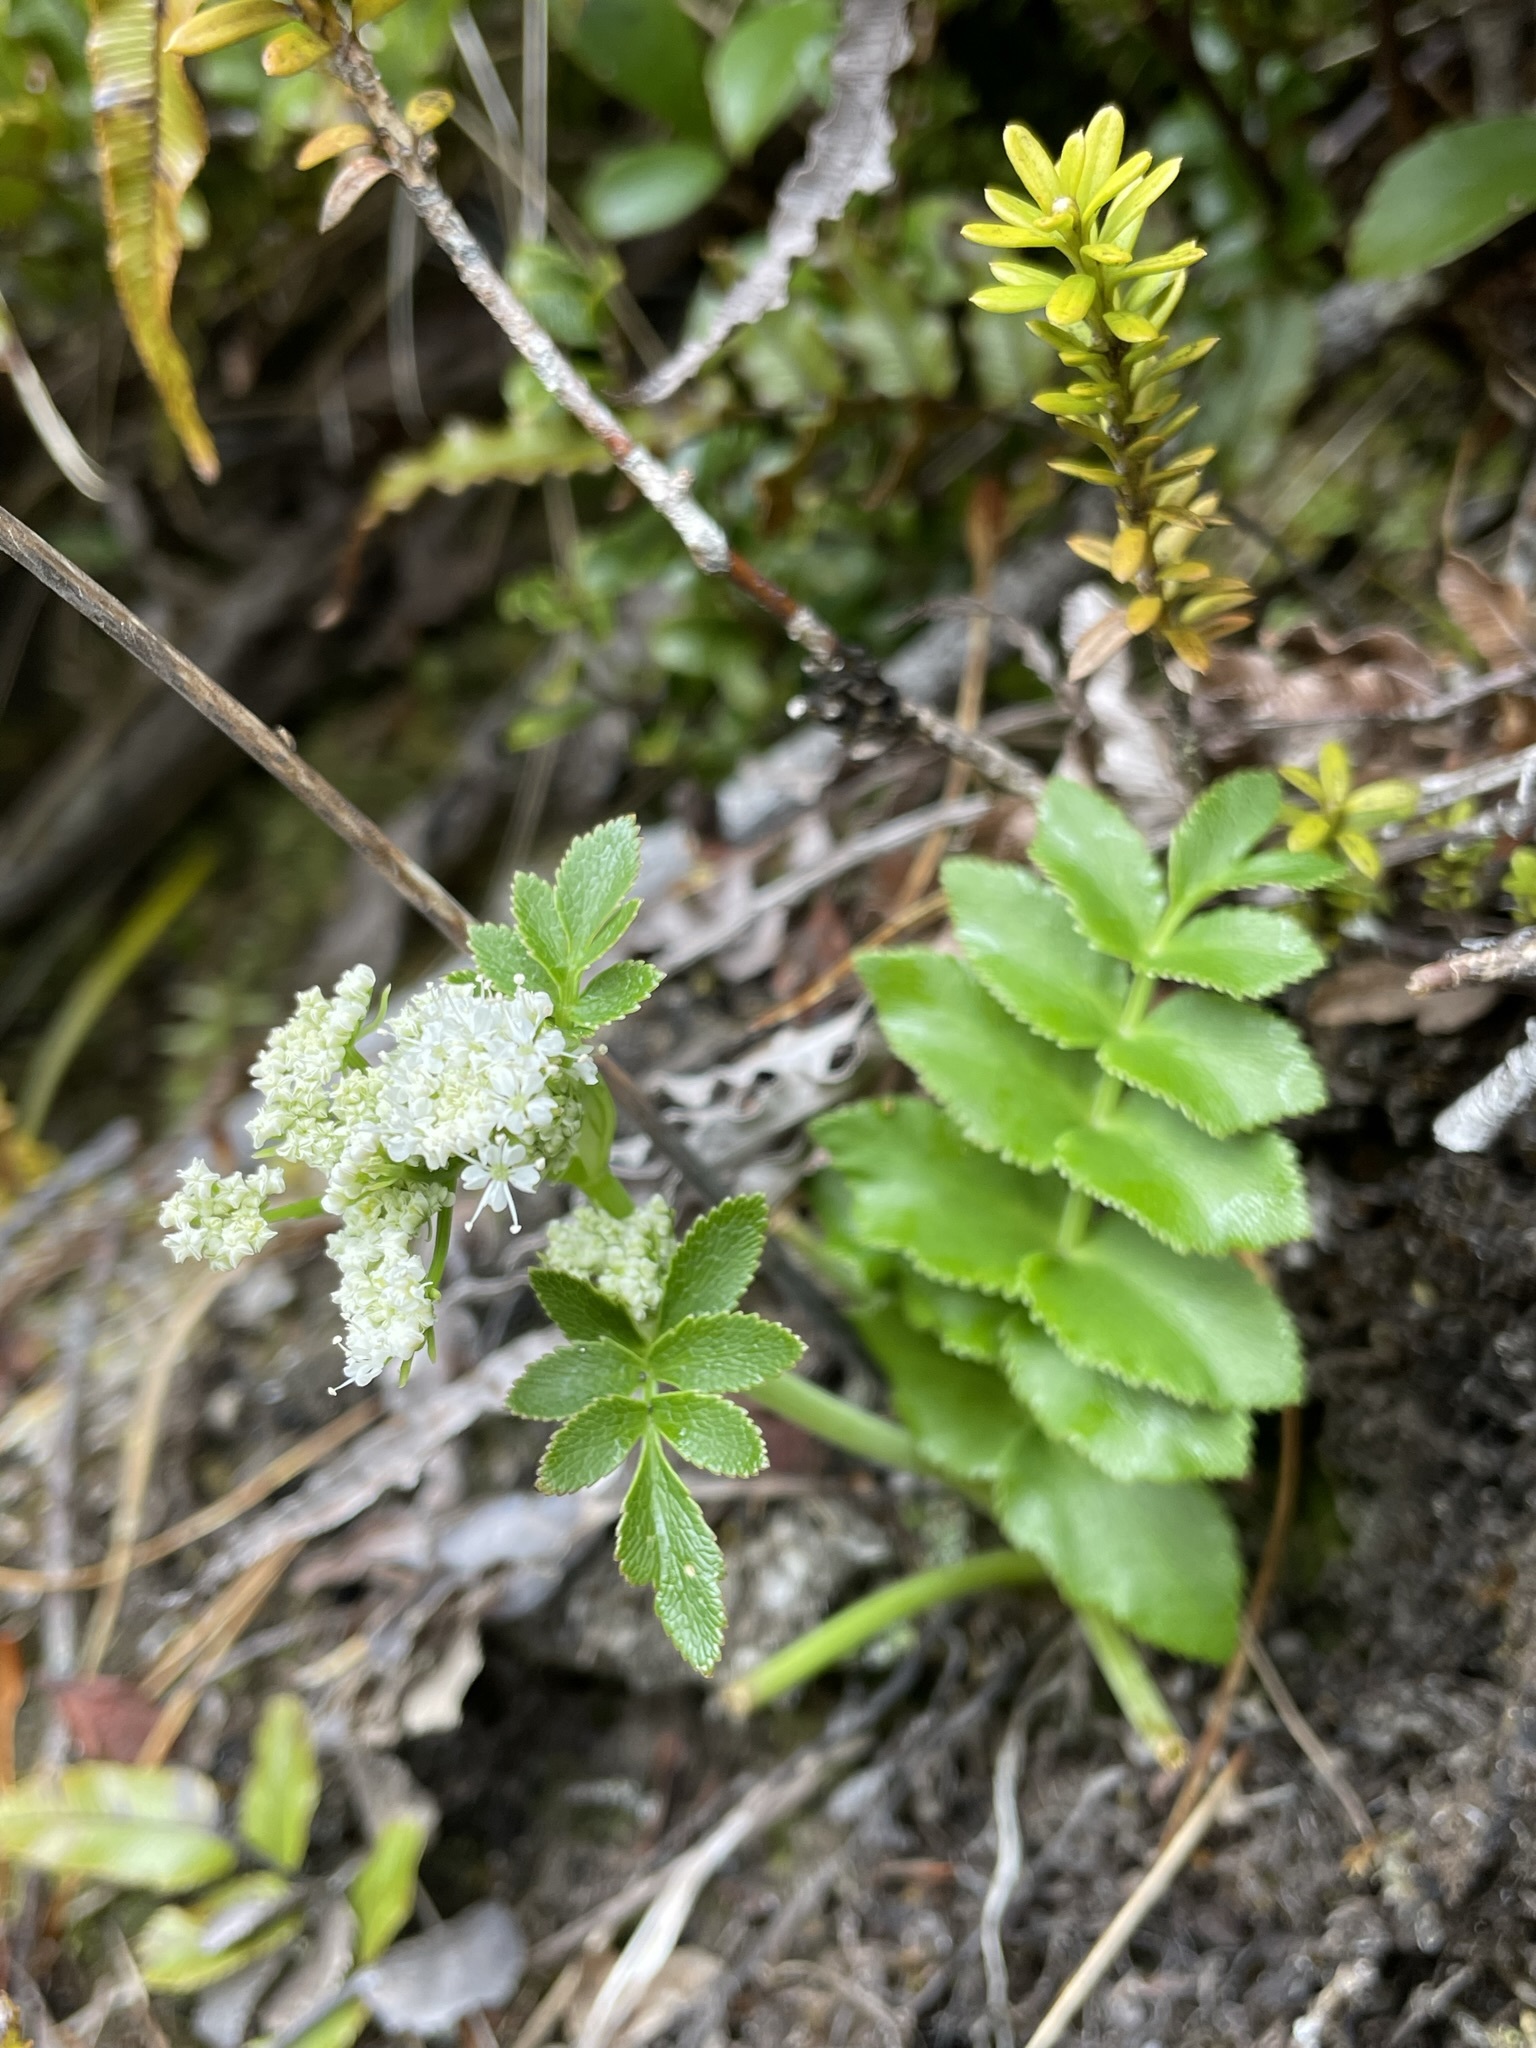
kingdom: Plantae
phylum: Tracheophyta
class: Magnoliopsida
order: Apiales
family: Apiaceae
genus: Gingidia
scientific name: Gingidia montana
